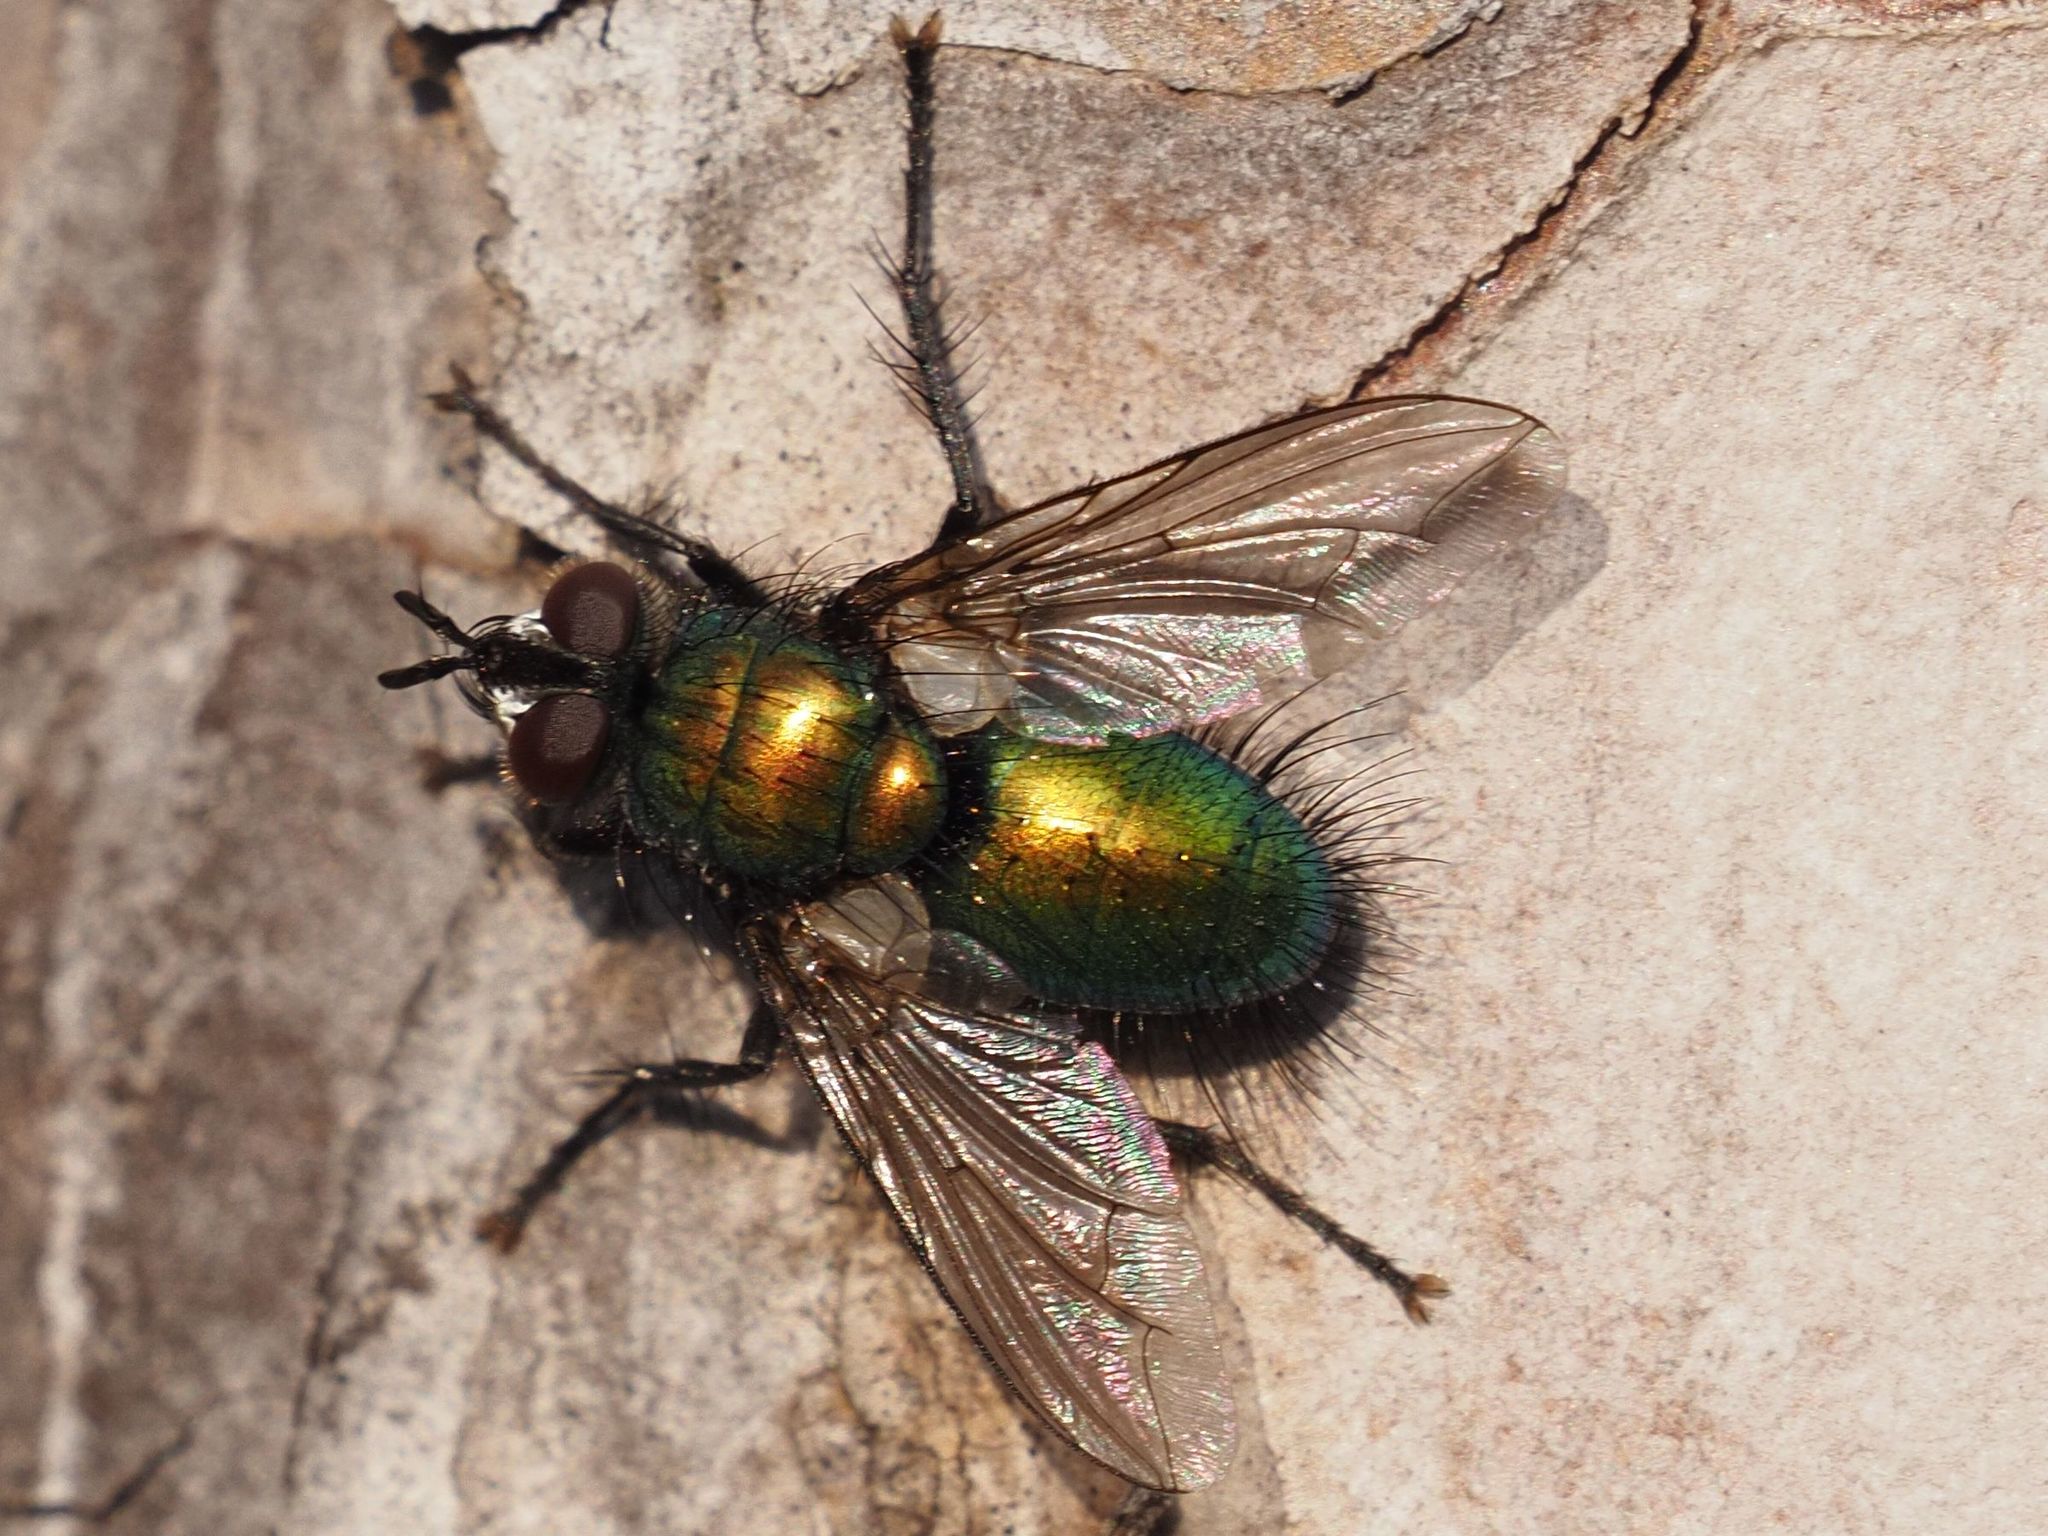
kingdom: Animalia
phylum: Arthropoda
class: Insecta
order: Diptera
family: Tachinidae
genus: Gymnocheta
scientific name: Gymnocheta viridis
